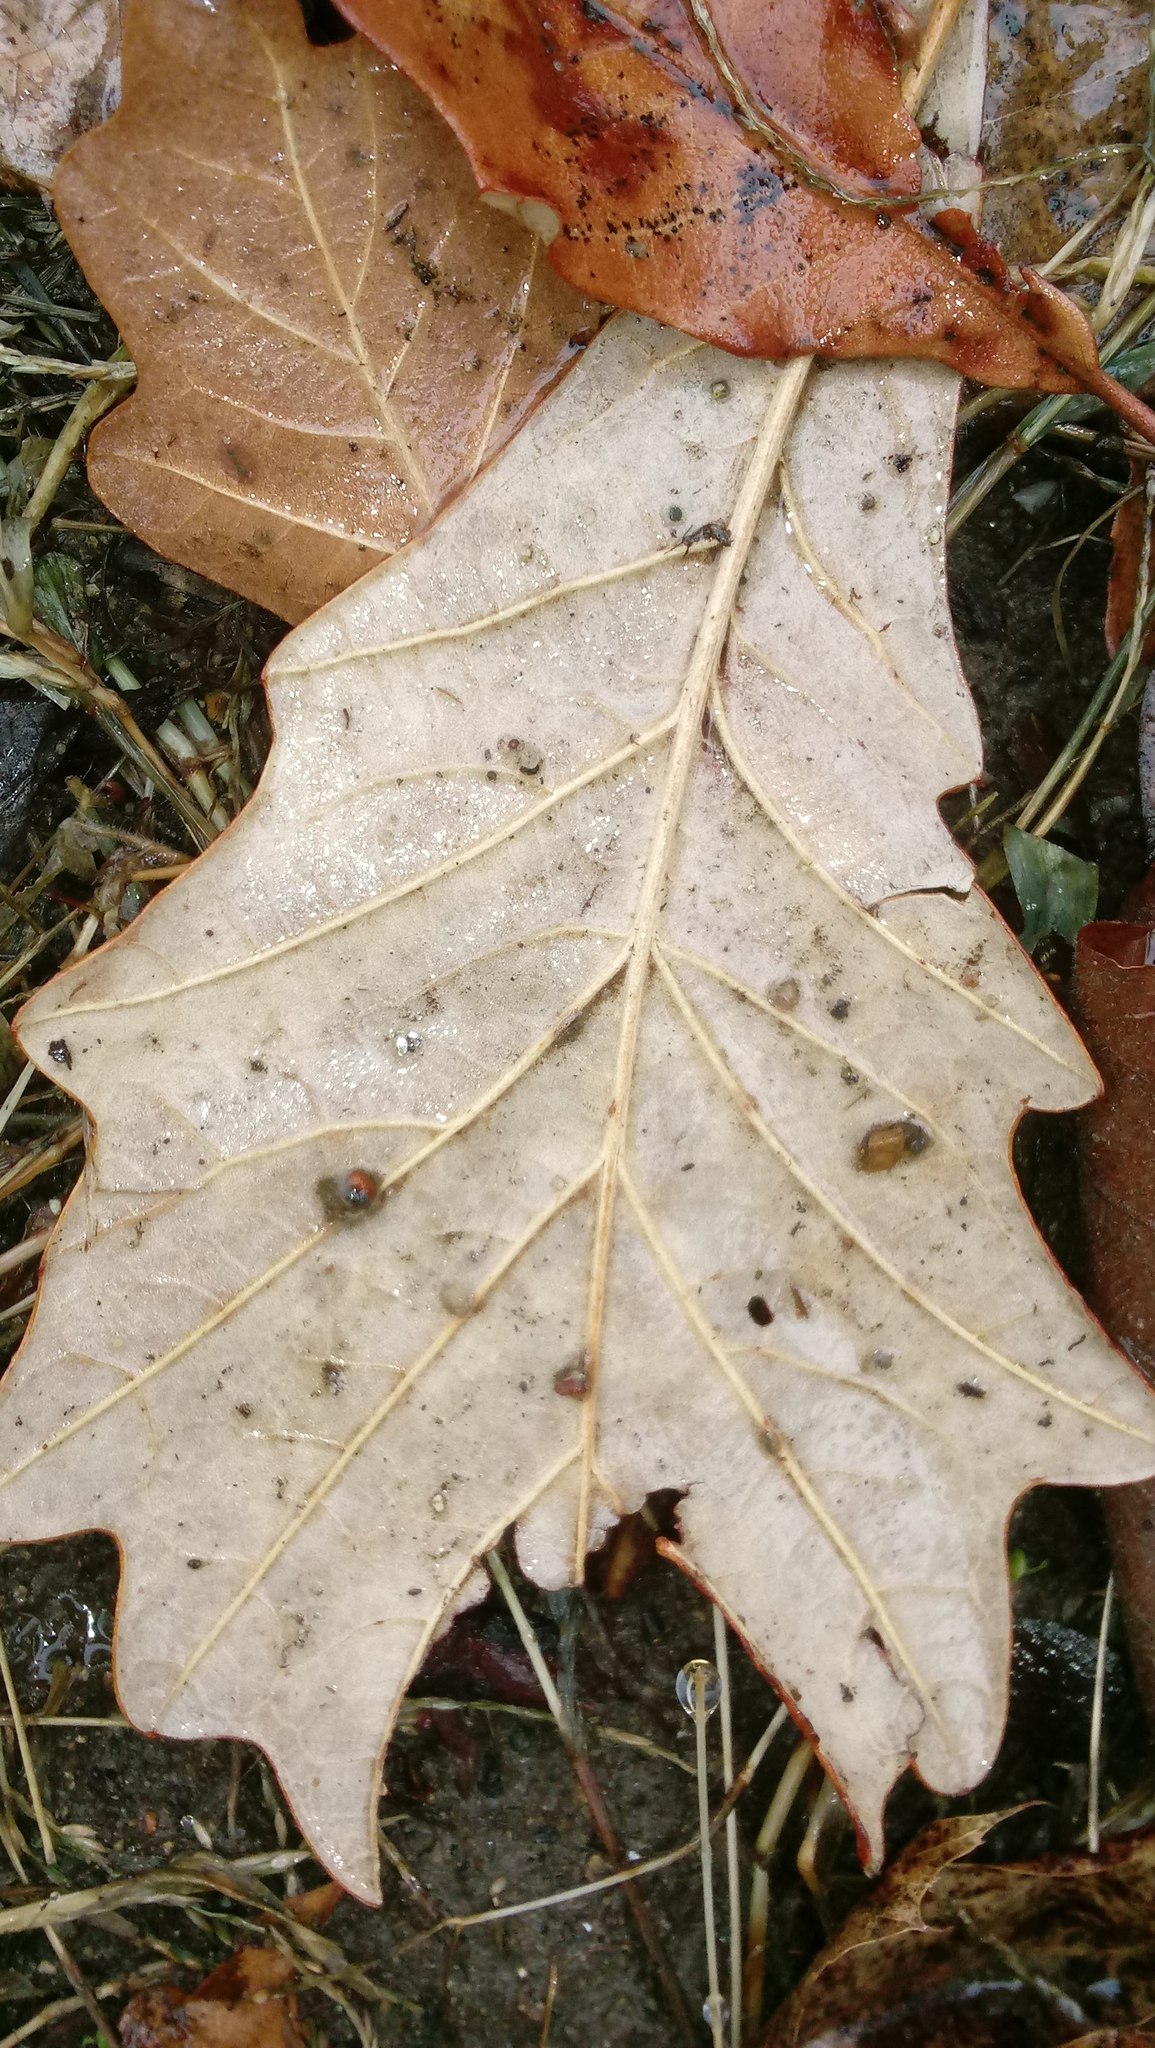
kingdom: Animalia
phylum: Arthropoda
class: Insecta
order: Hymenoptera
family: Cynipidae
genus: Andricus
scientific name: Andricus Druon ignotum
